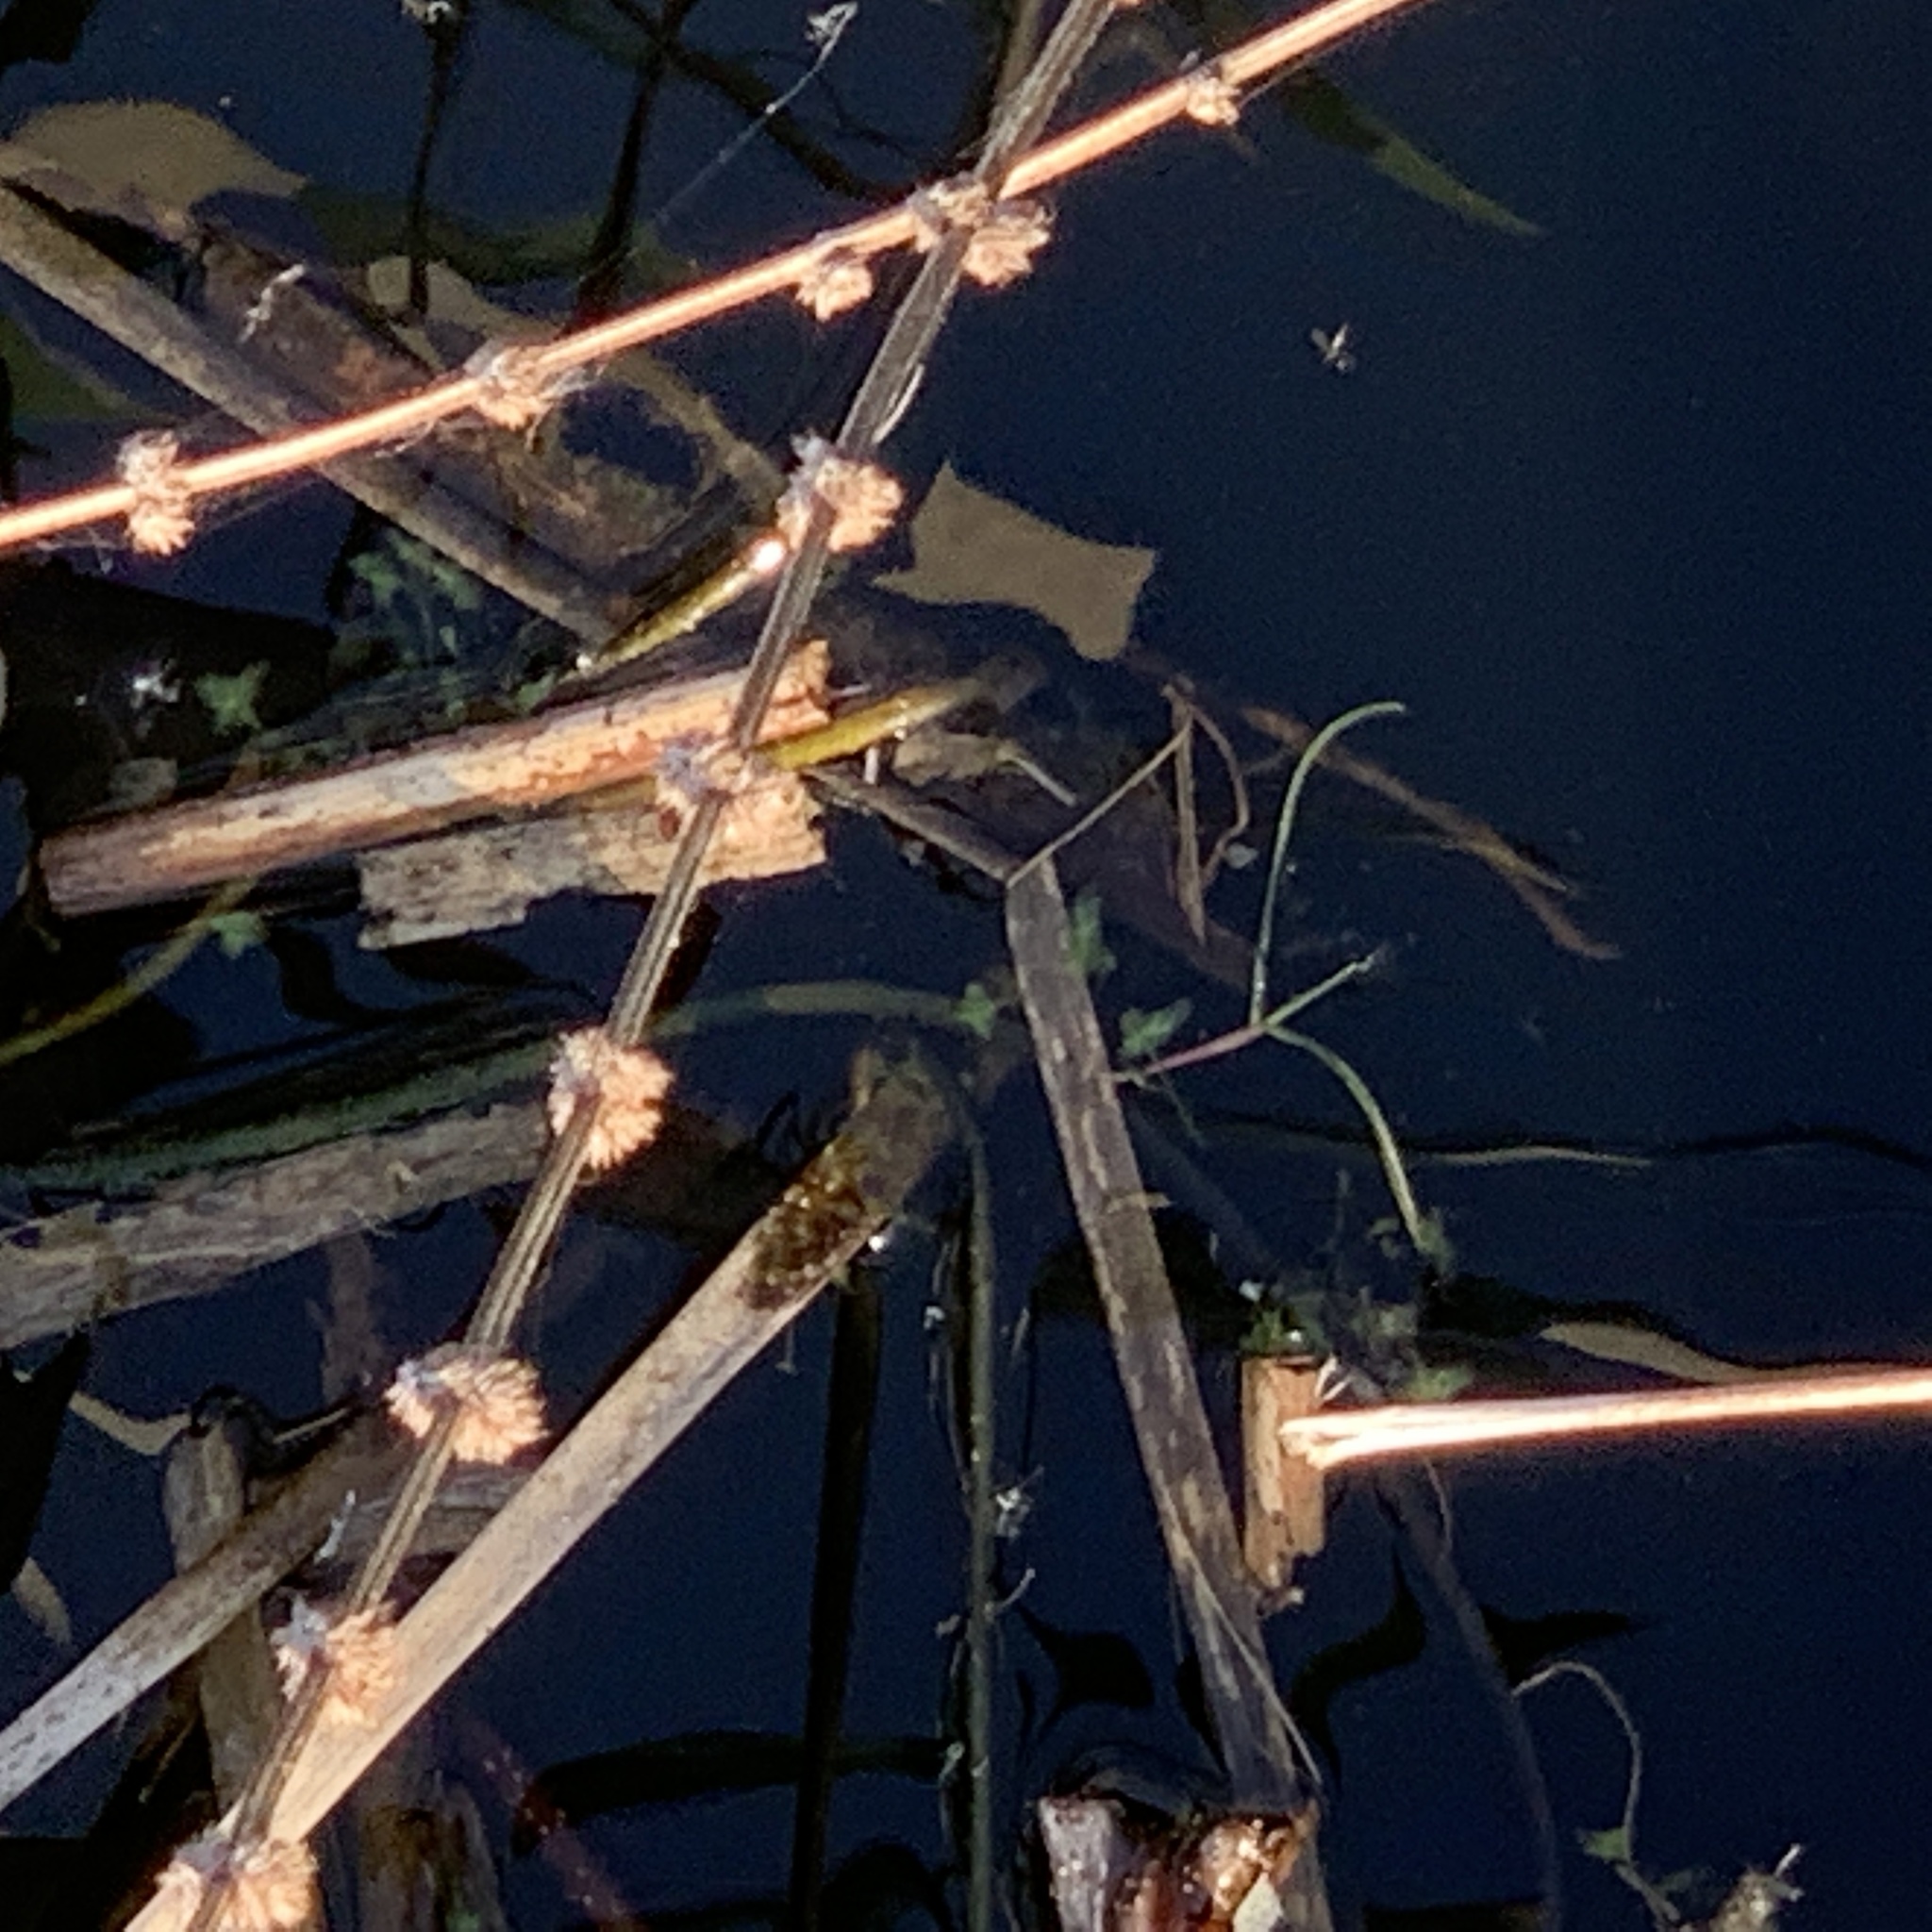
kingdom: Plantae
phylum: Tracheophyta
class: Magnoliopsida
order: Lamiales
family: Lamiaceae
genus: Stachys
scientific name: Stachys palustris
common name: Marsh woundwort
